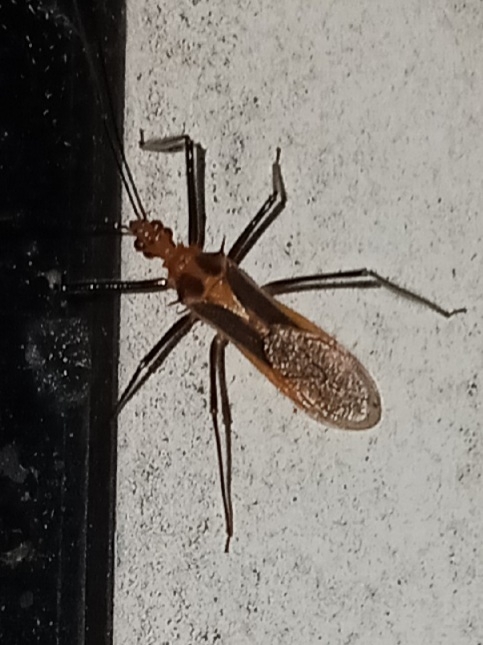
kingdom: Animalia
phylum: Arthropoda
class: Insecta
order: Hemiptera
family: Reduviidae
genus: Repipta
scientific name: Repipta taurus
